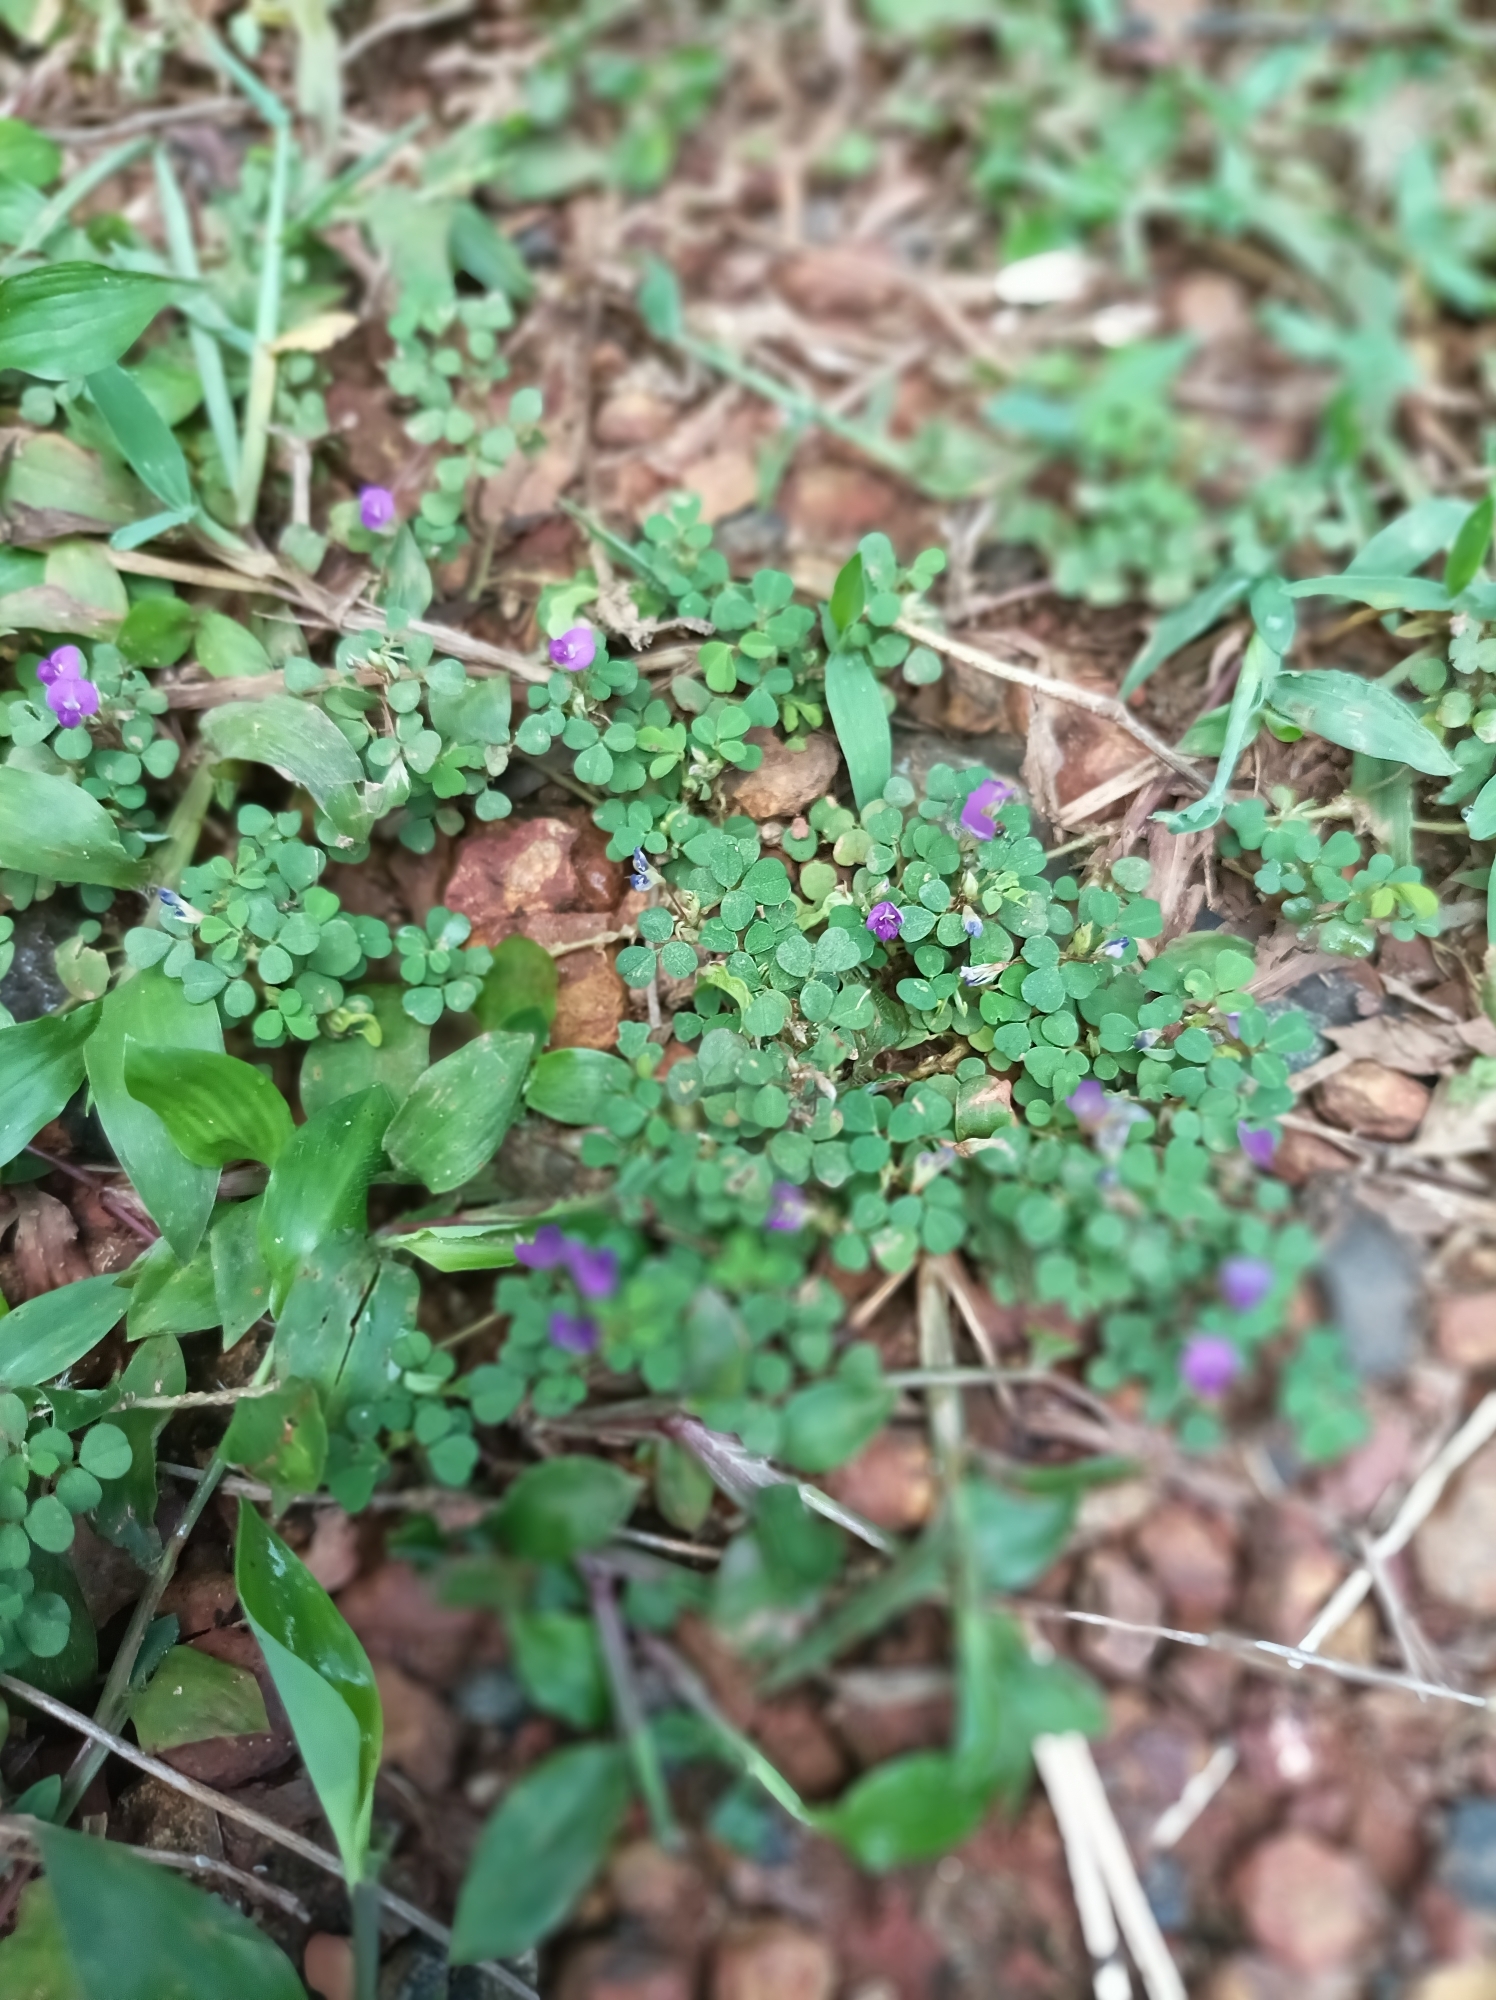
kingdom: Plantae
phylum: Tracheophyta
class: Magnoliopsida
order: Fabales
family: Fabaceae
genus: Grona
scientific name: Grona triflora
